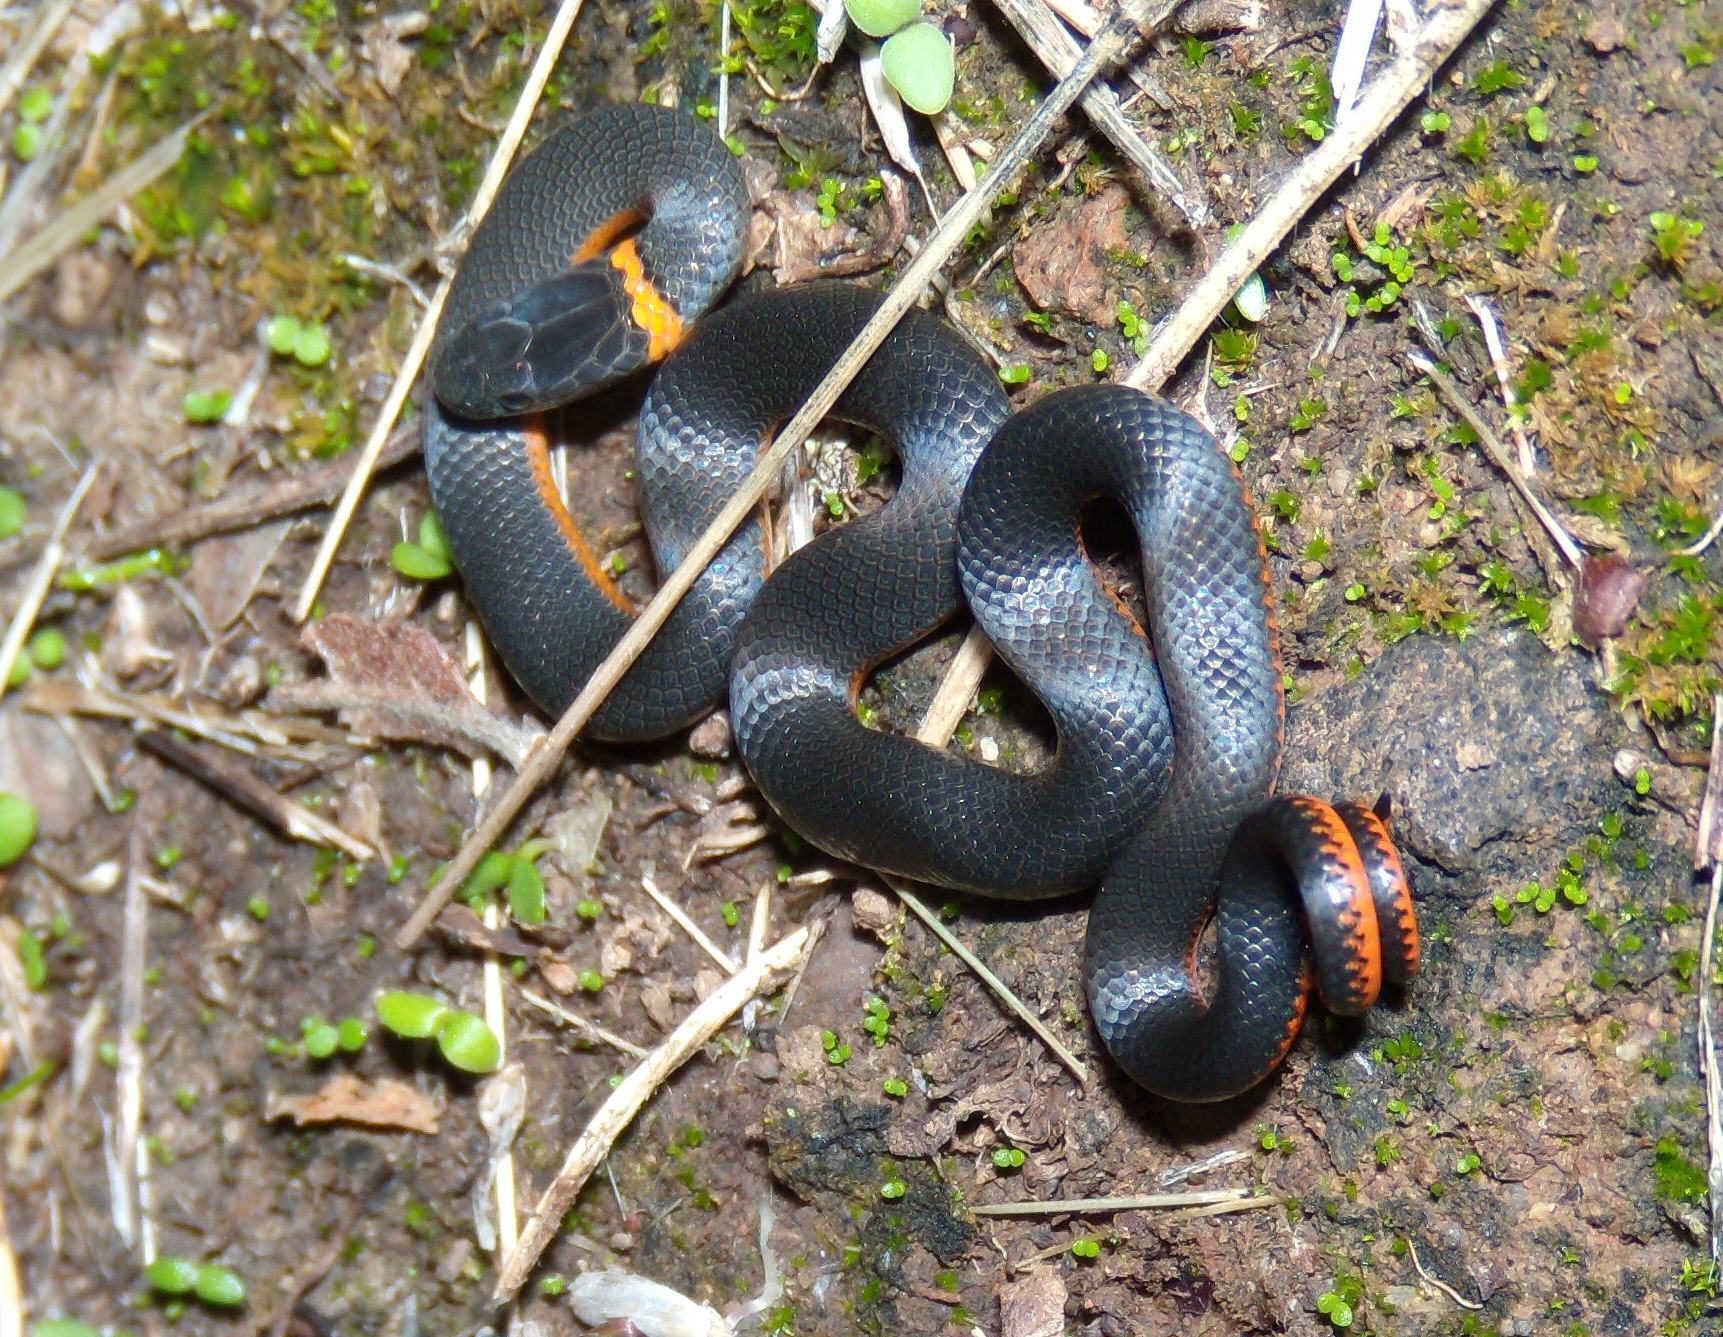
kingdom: Animalia
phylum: Chordata
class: Squamata
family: Colubridae
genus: Diadophis
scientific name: Diadophis punctatus
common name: Ringneck snake
